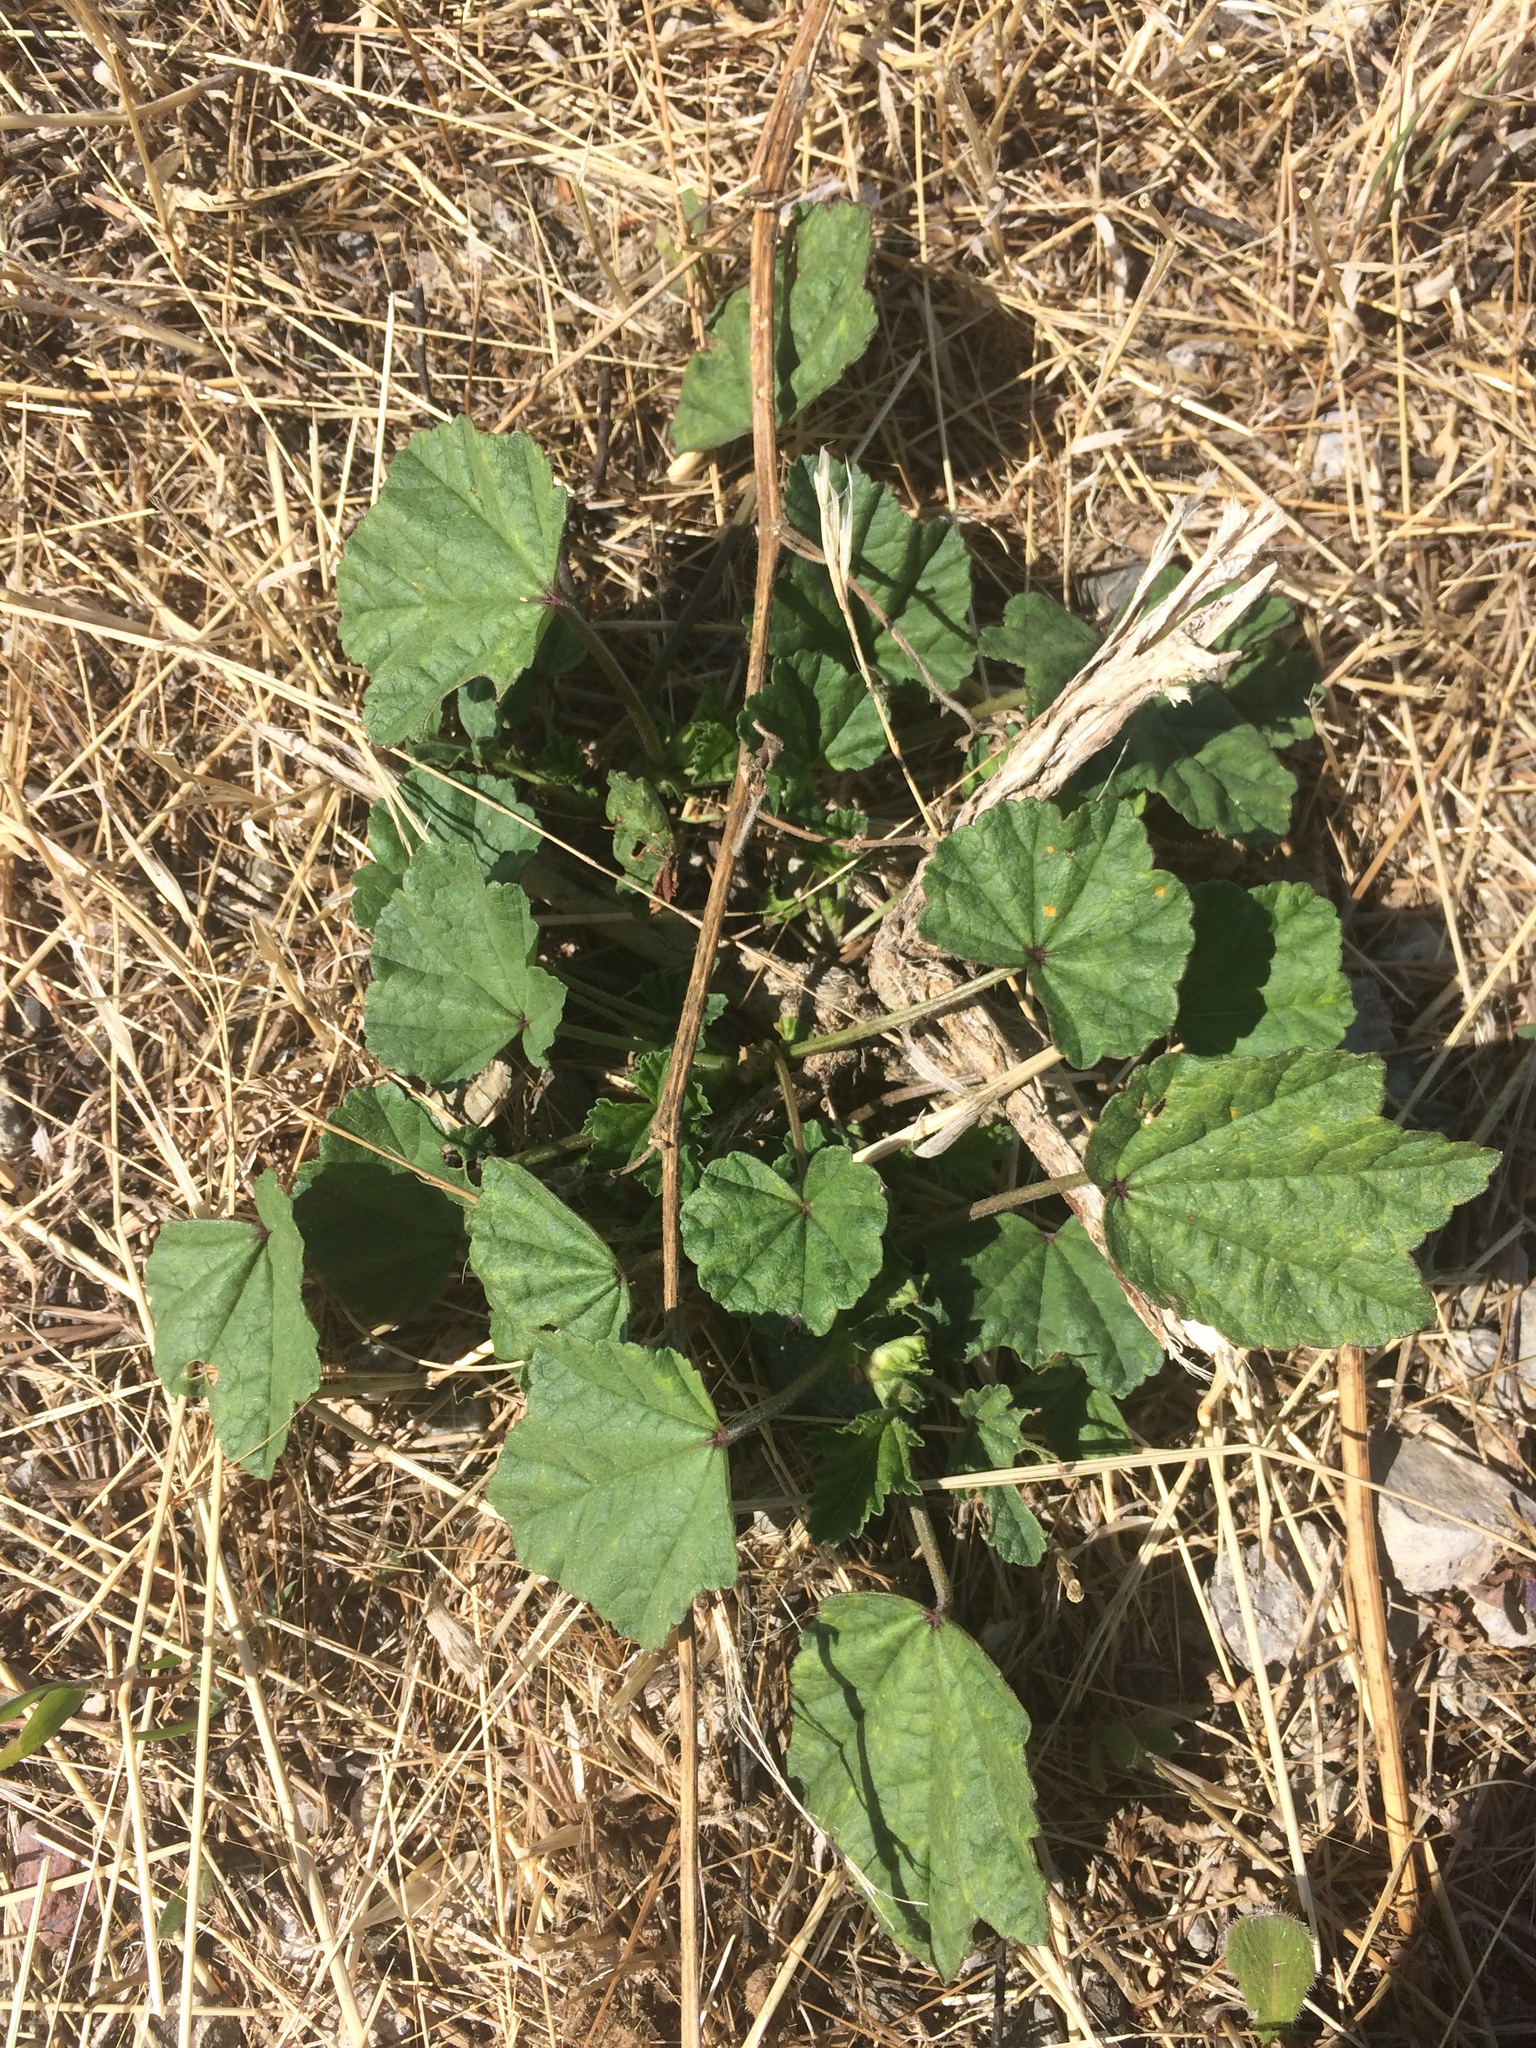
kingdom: Plantae
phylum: Tracheophyta
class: Magnoliopsida
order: Malvales
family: Malvaceae
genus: Malva
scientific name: Malva
